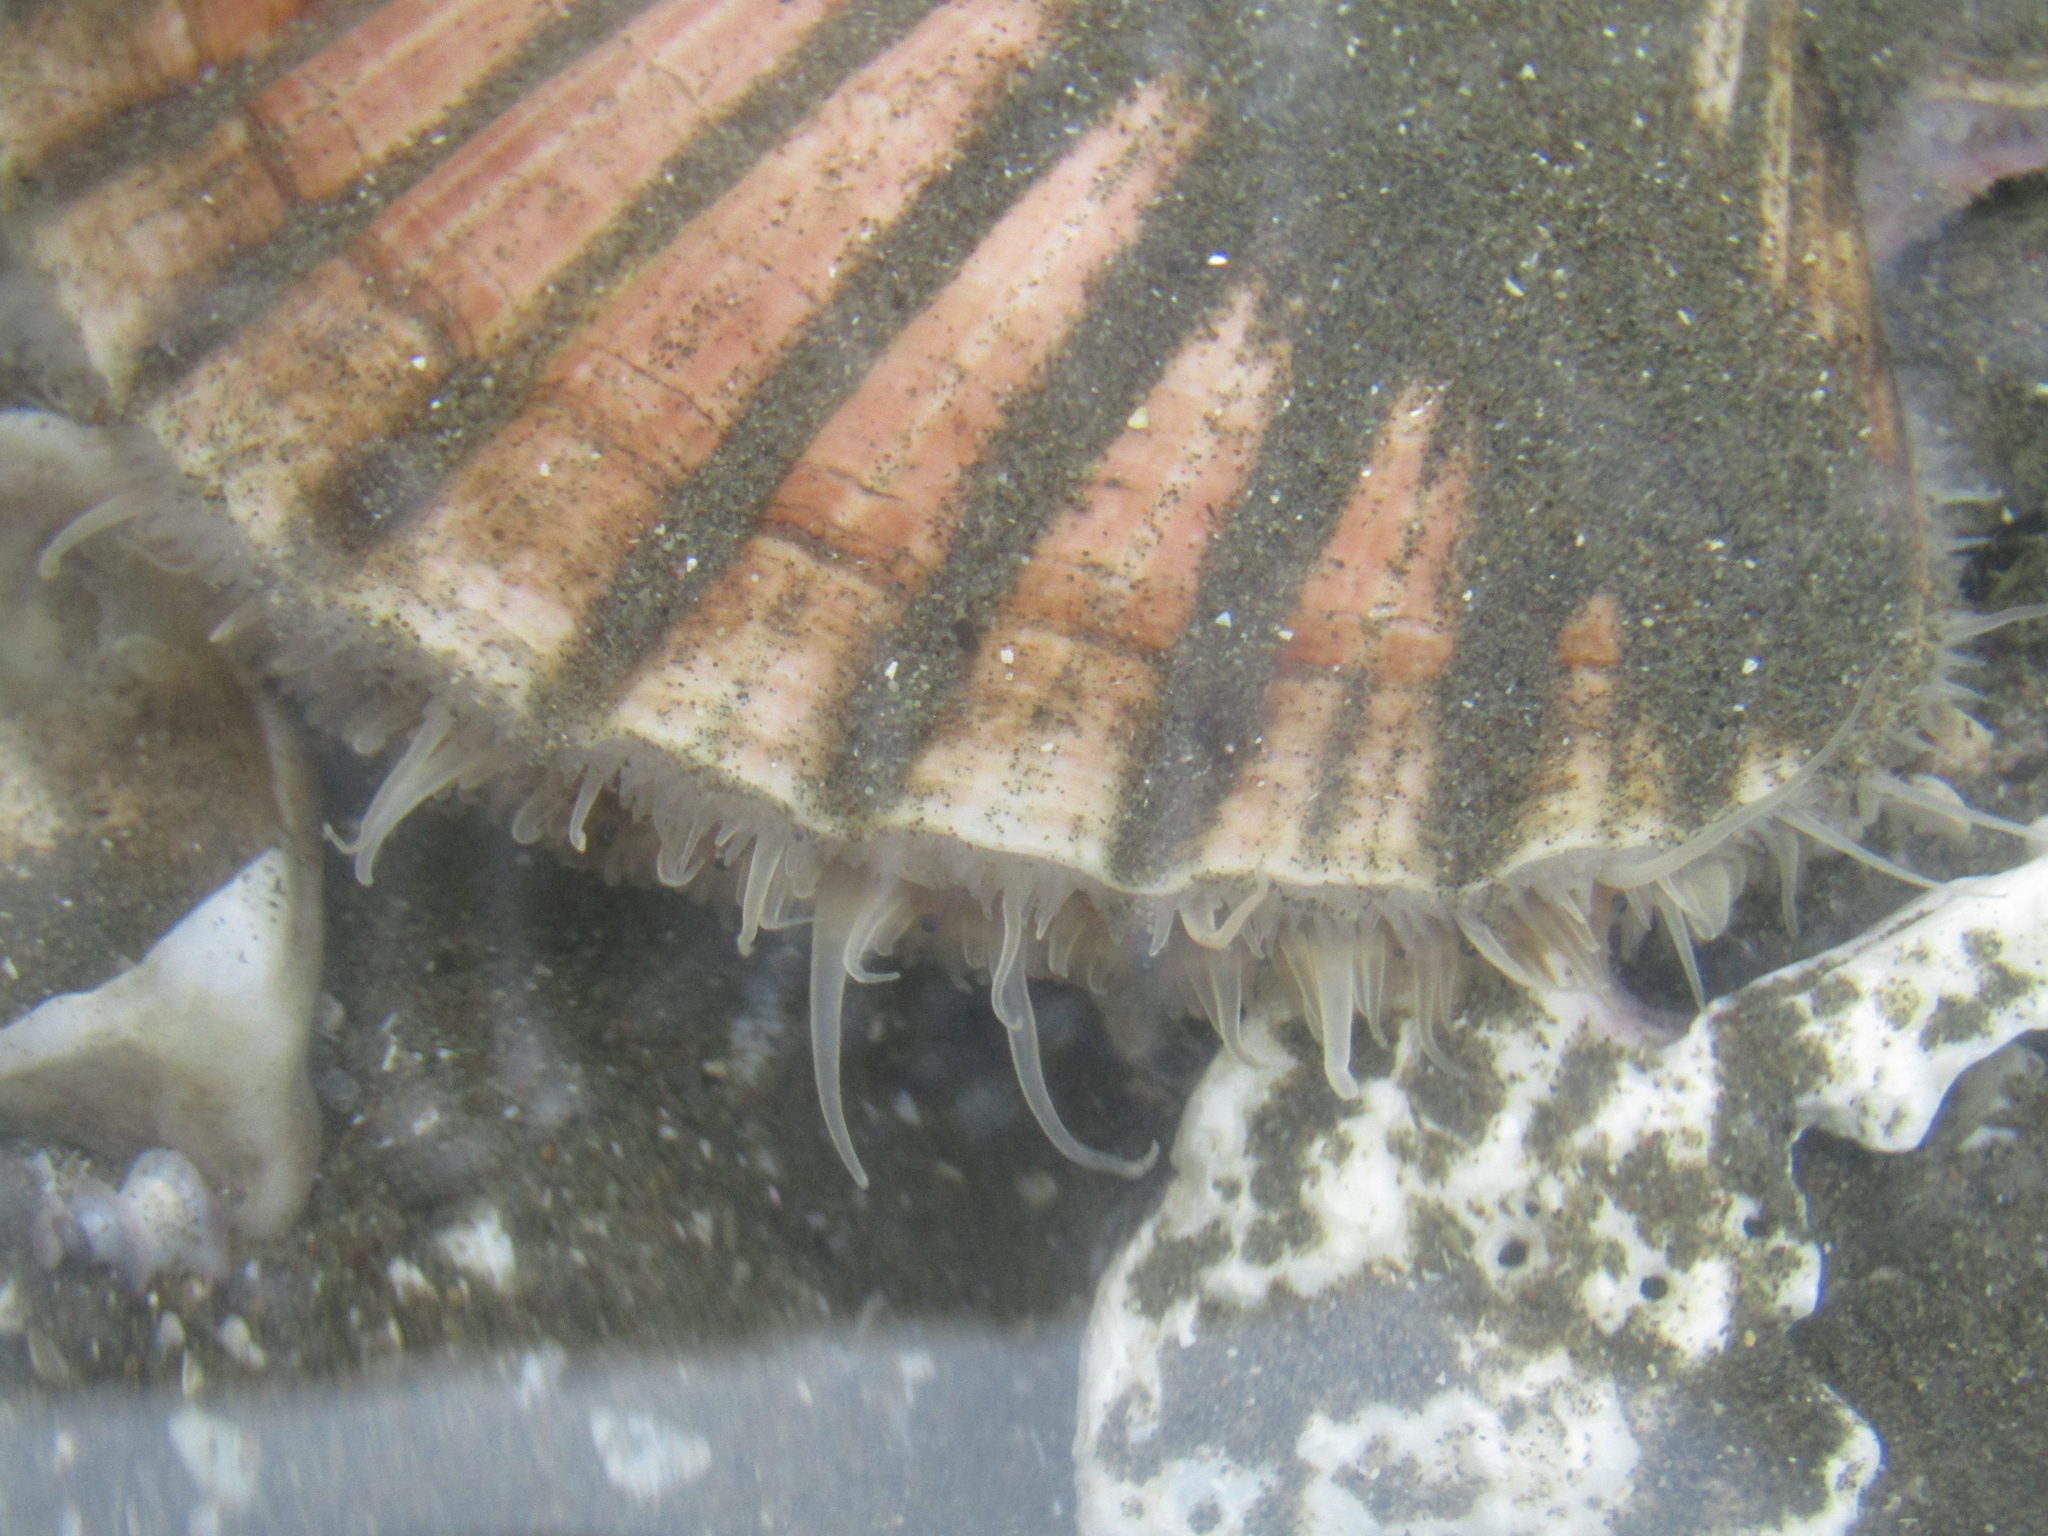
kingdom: Animalia
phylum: Mollusca
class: Bivalvia
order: Pectinida
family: Pectinidae
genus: Pecten
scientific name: Pecten novaezelandiae
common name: New zealand scallop
